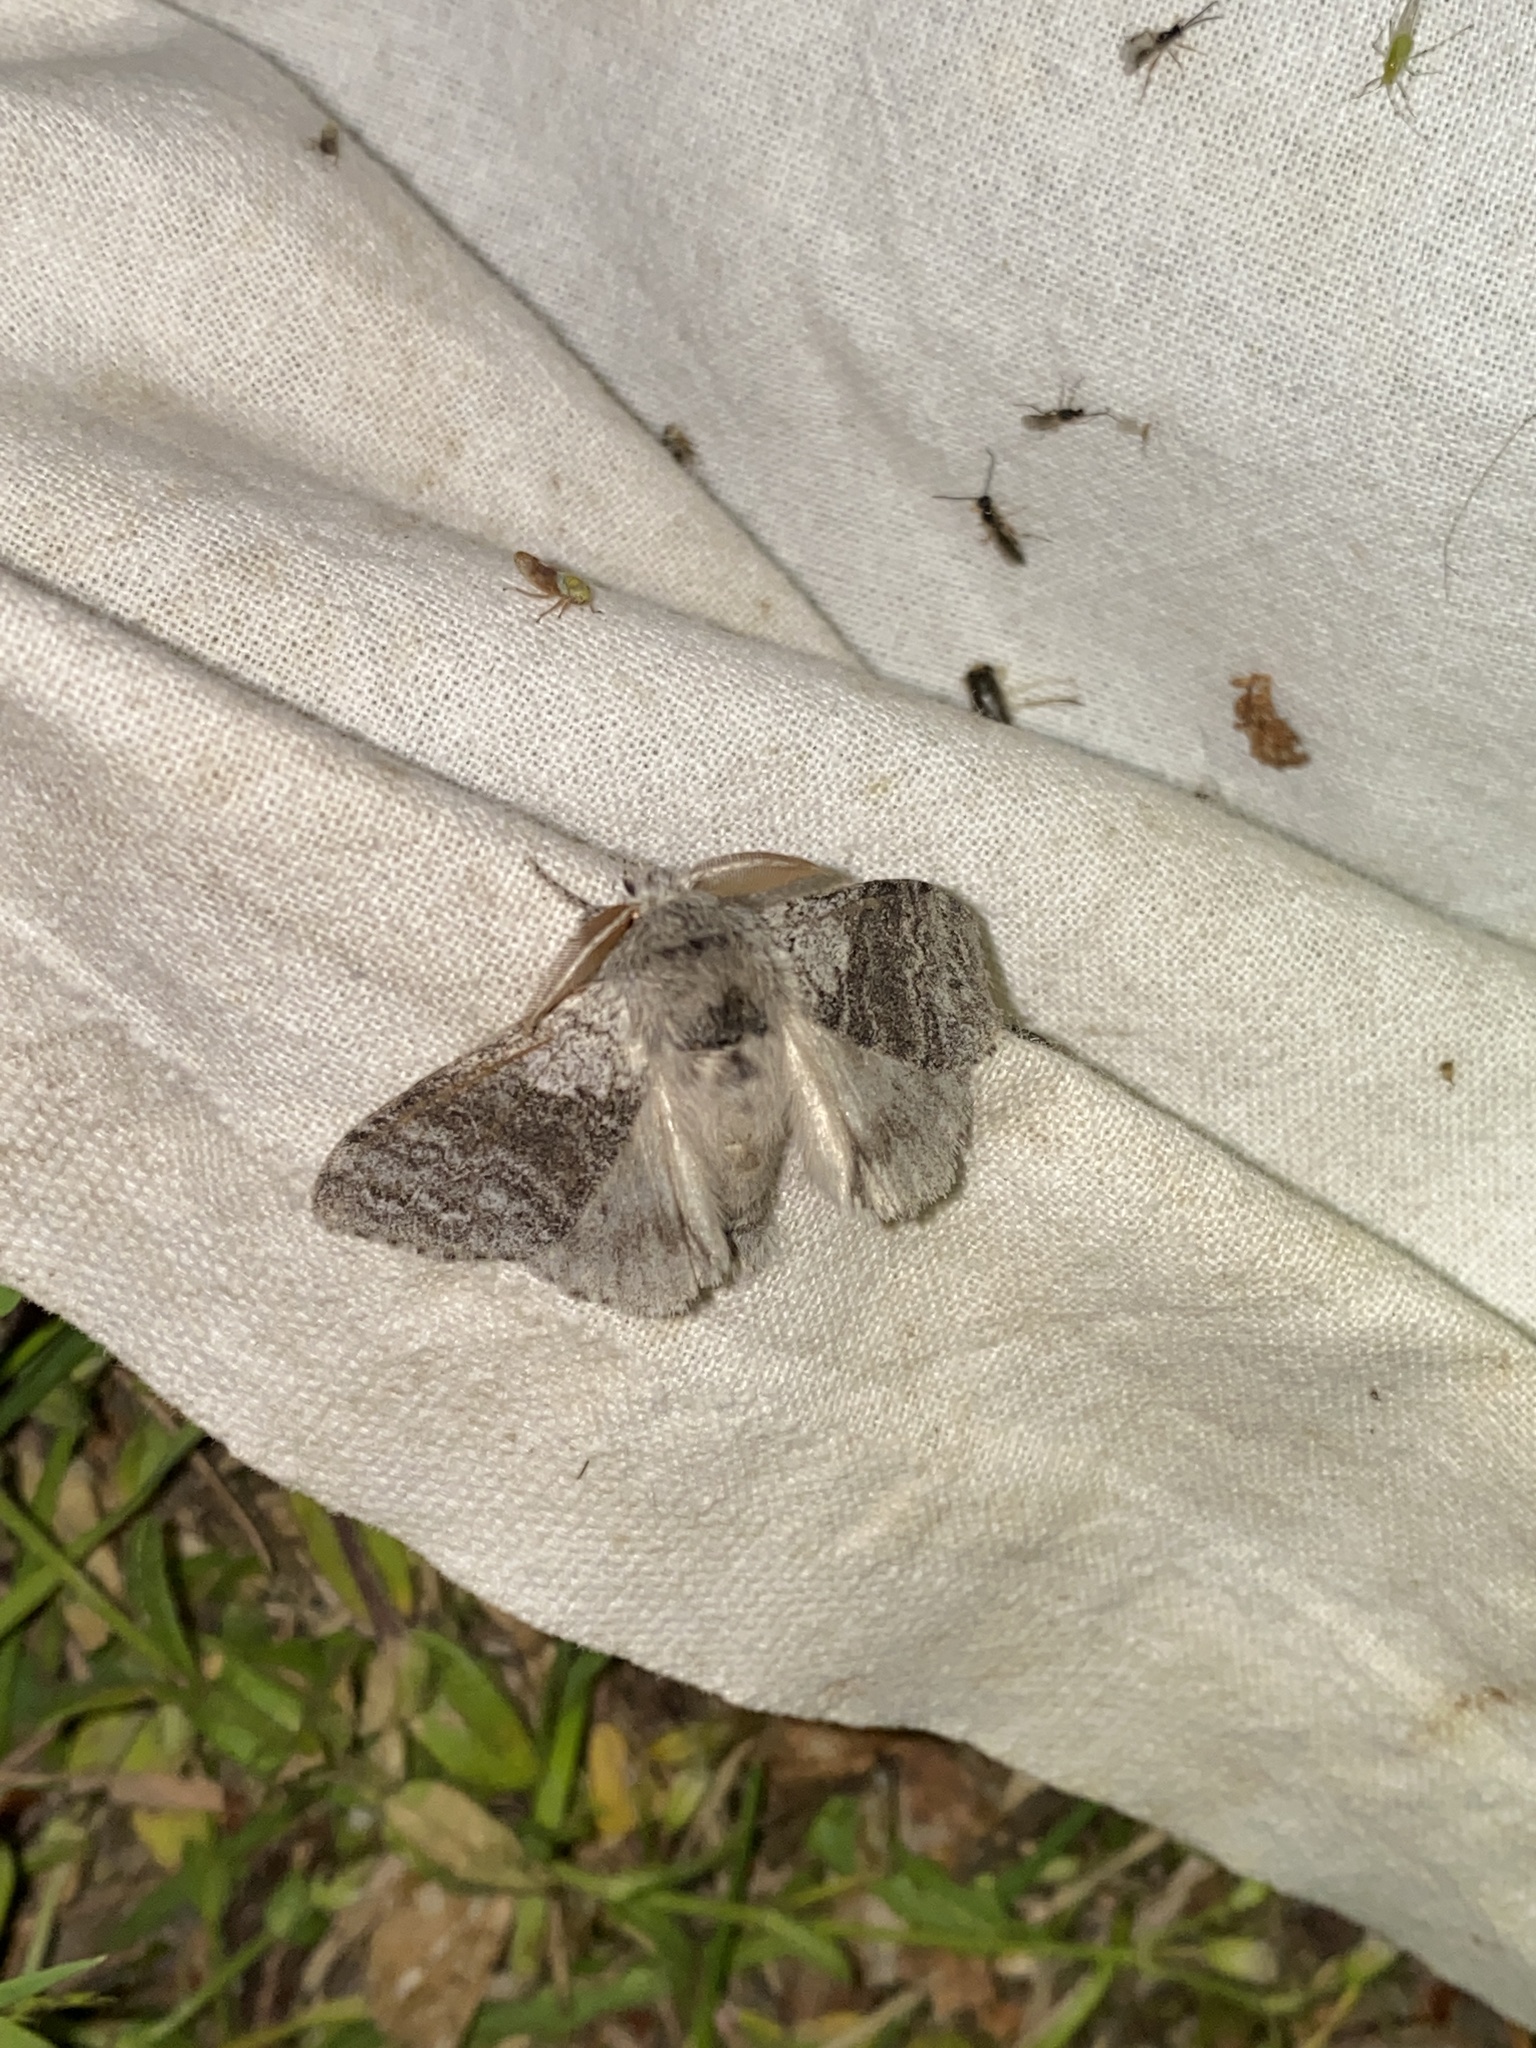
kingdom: Animalia
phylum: Arthropoda
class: Insecta
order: Lepidoptera
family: Erebidae
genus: Calliteara
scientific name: Calliteara pudibunda
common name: Pale tussock
